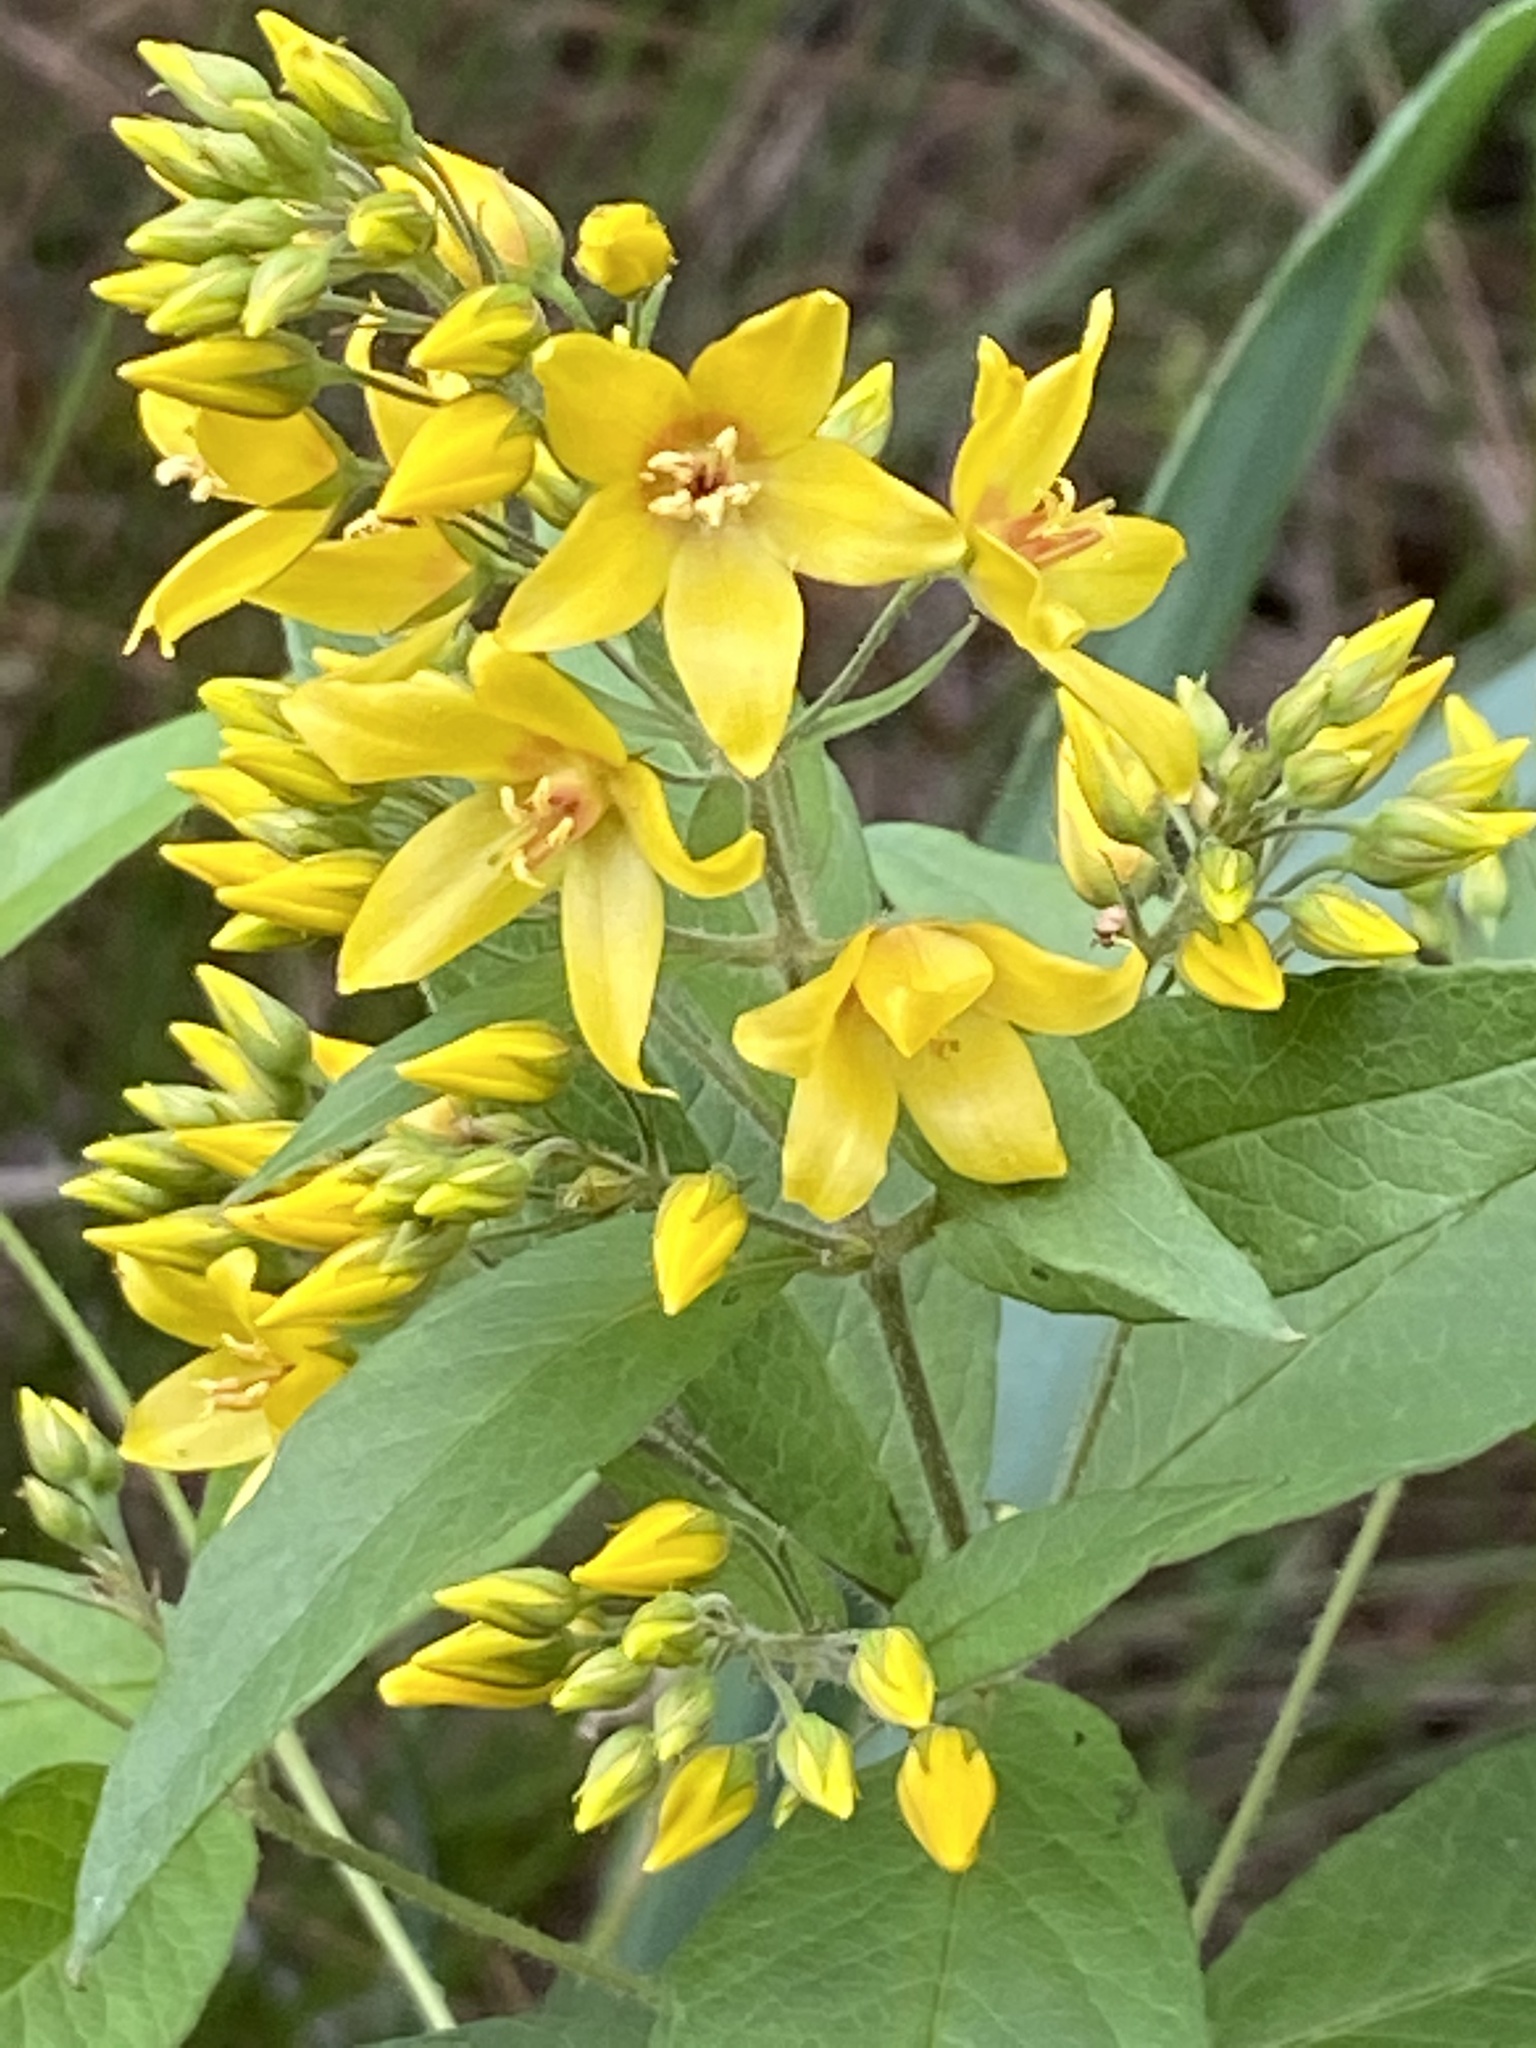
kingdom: Plantae
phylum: Tracheophyta
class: Magnoliopsida
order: Ericales
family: Primulaceae
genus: Lysimachia
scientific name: Lysimachia vulgaris
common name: Yellow loosestrife
